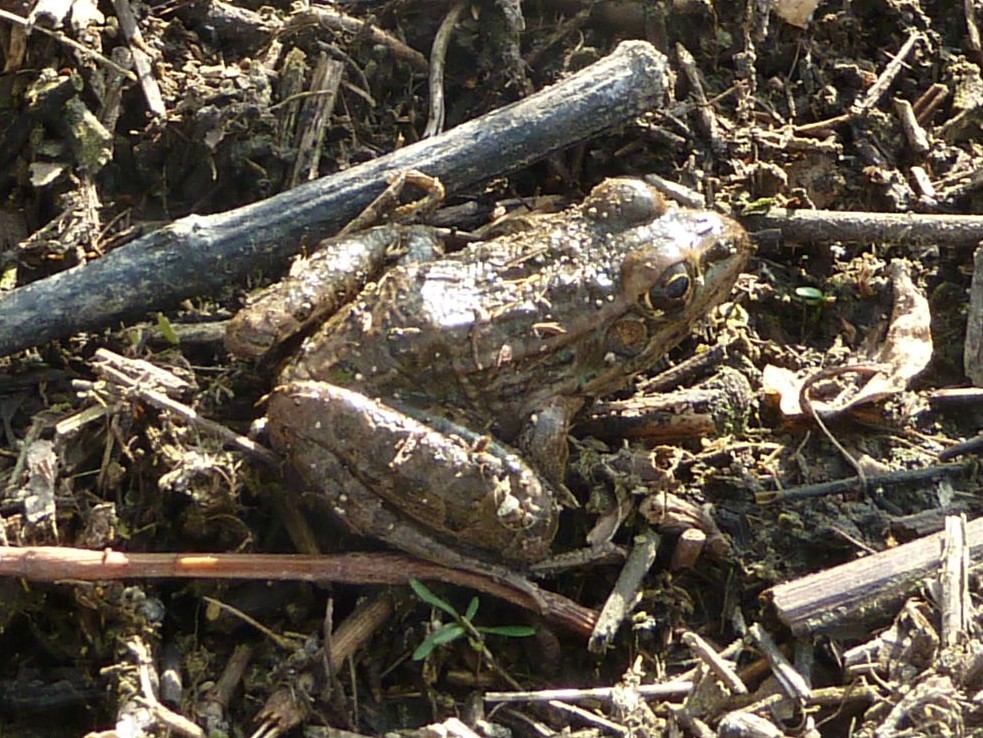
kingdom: Animalia
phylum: Chordata
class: Amphibia
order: Anura
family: Ranidae
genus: Lithobates
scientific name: Lithobates sphenocephalus
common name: Southern leopard frog
